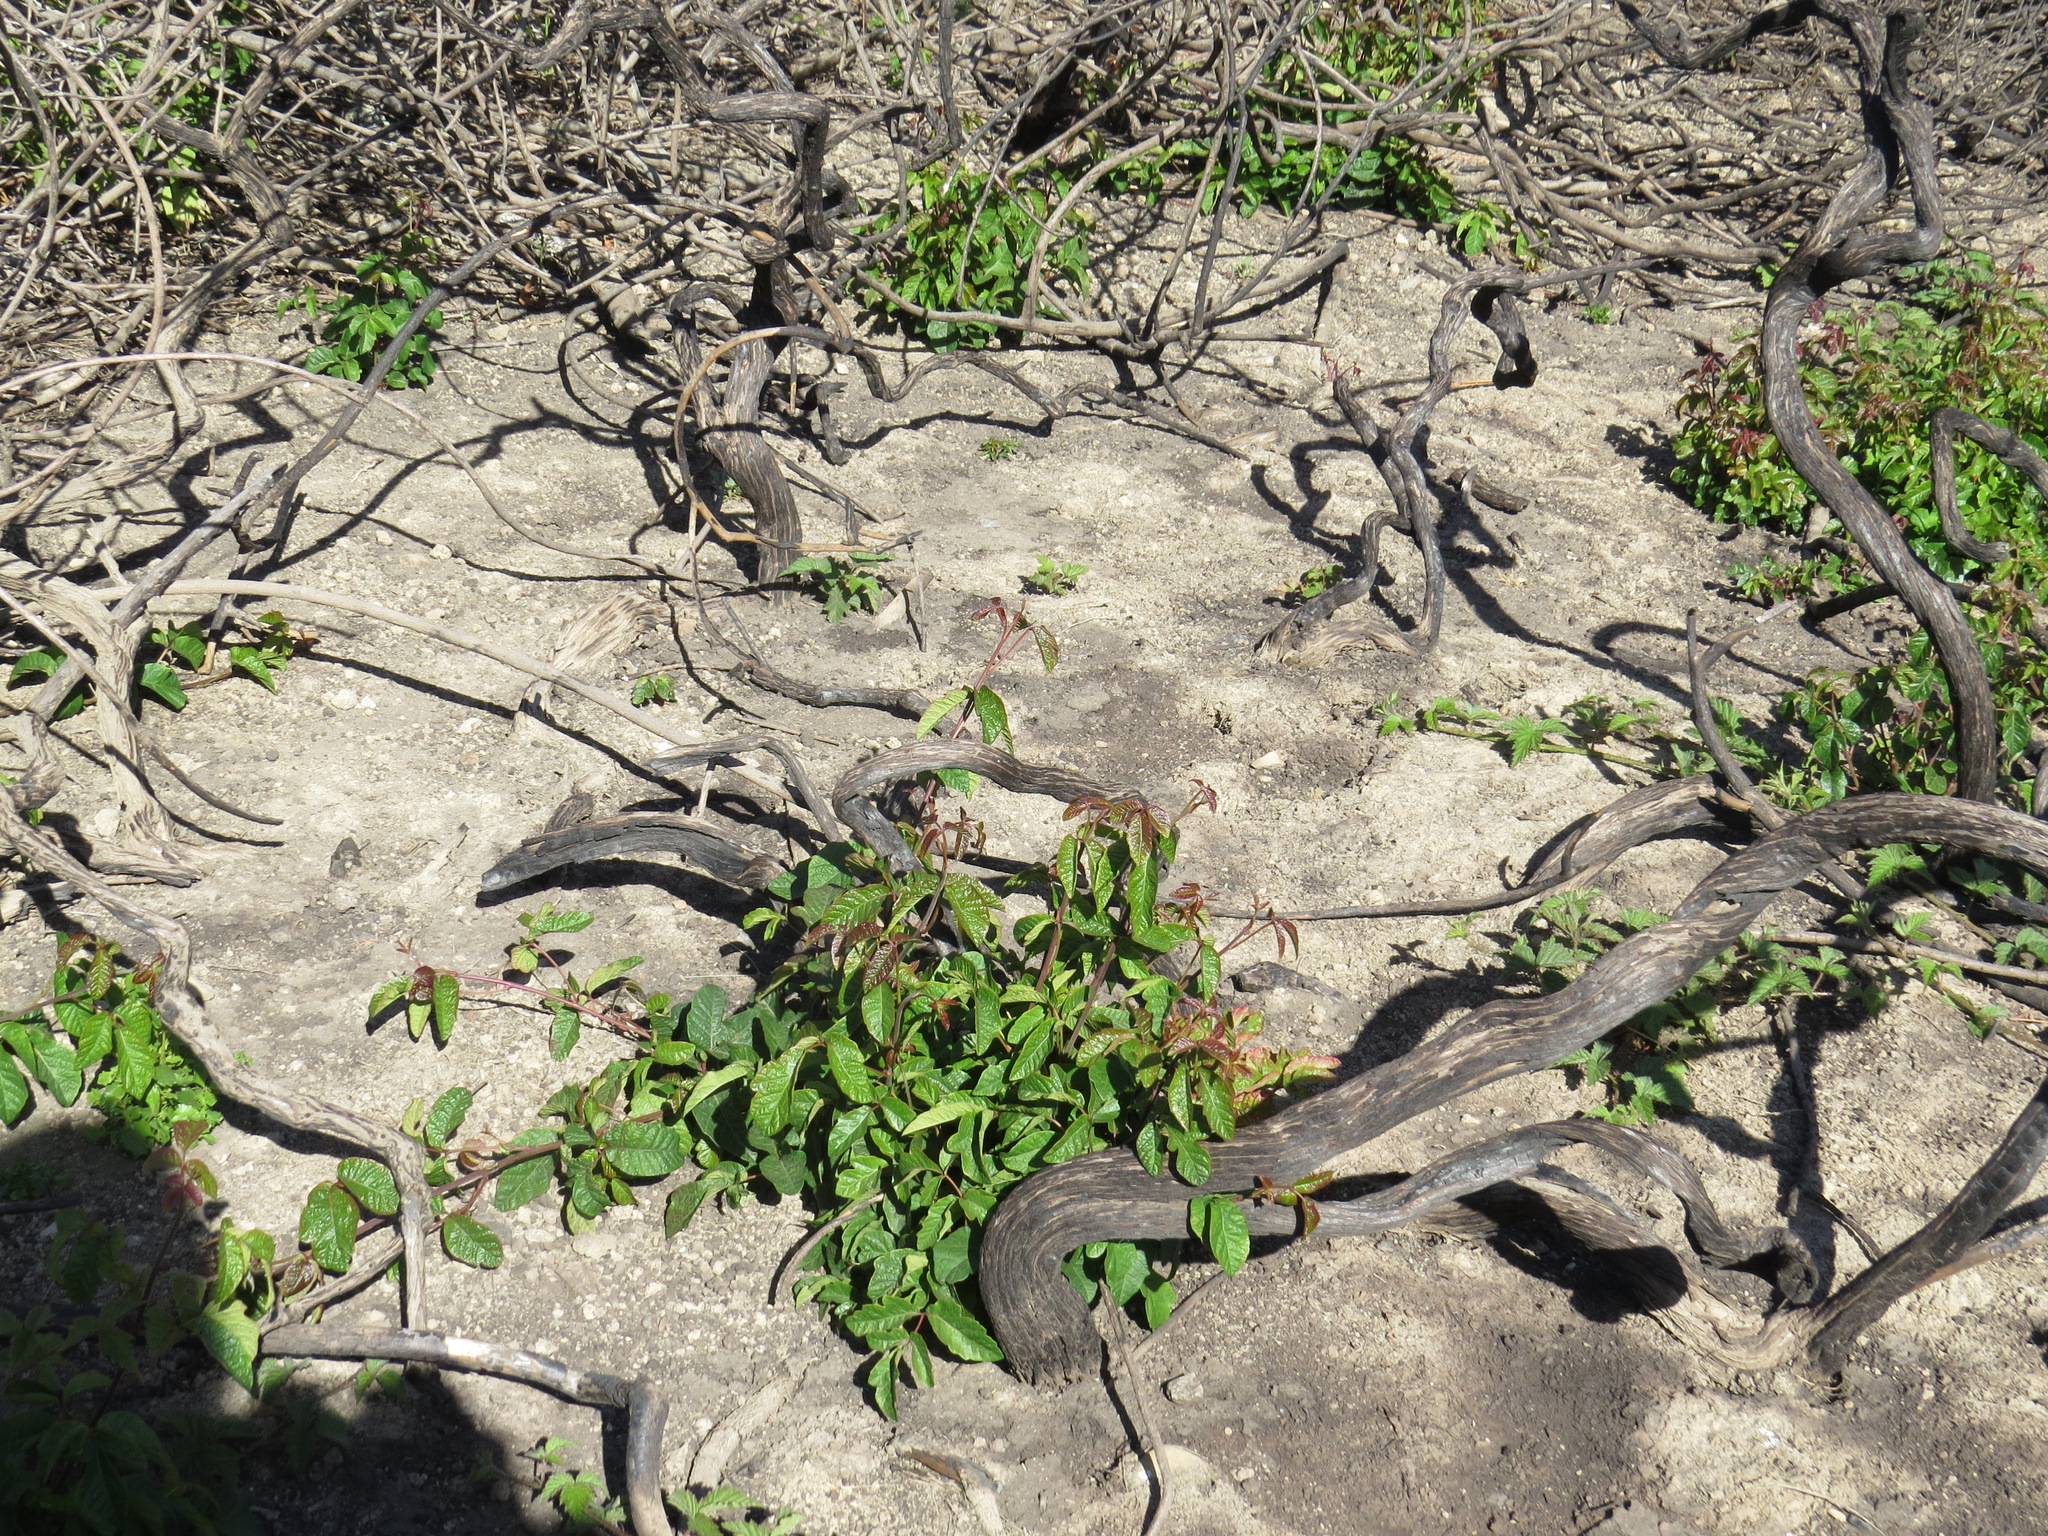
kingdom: Plantae
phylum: Tracheophyta
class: Magnoliopsida
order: Sapindales
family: Anacardiaceae
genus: Toxicodendron
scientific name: Toxicodendron diversilobum
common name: Pacific poison-oak
